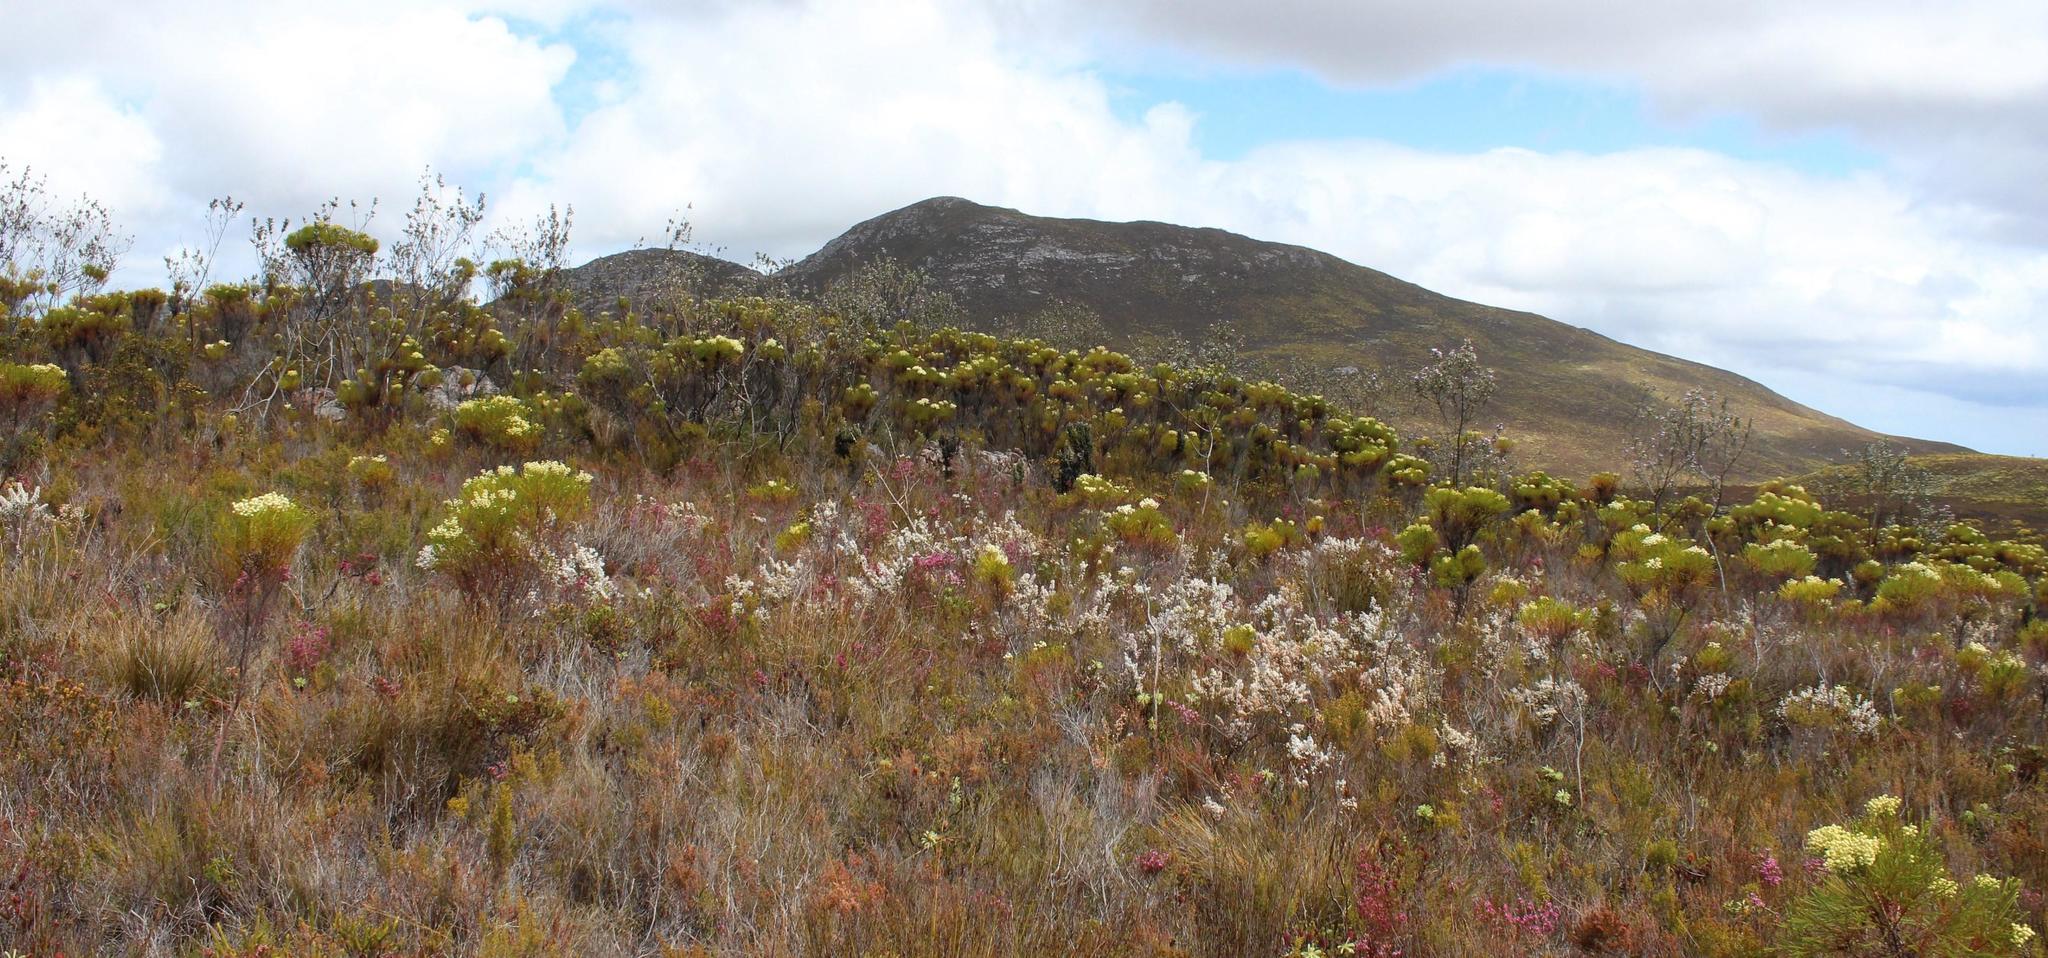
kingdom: Plantae
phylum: Tracheophyta
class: Magnoliopsida
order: Ericales
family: Ericaceae
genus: Erica
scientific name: Erica sitiens
